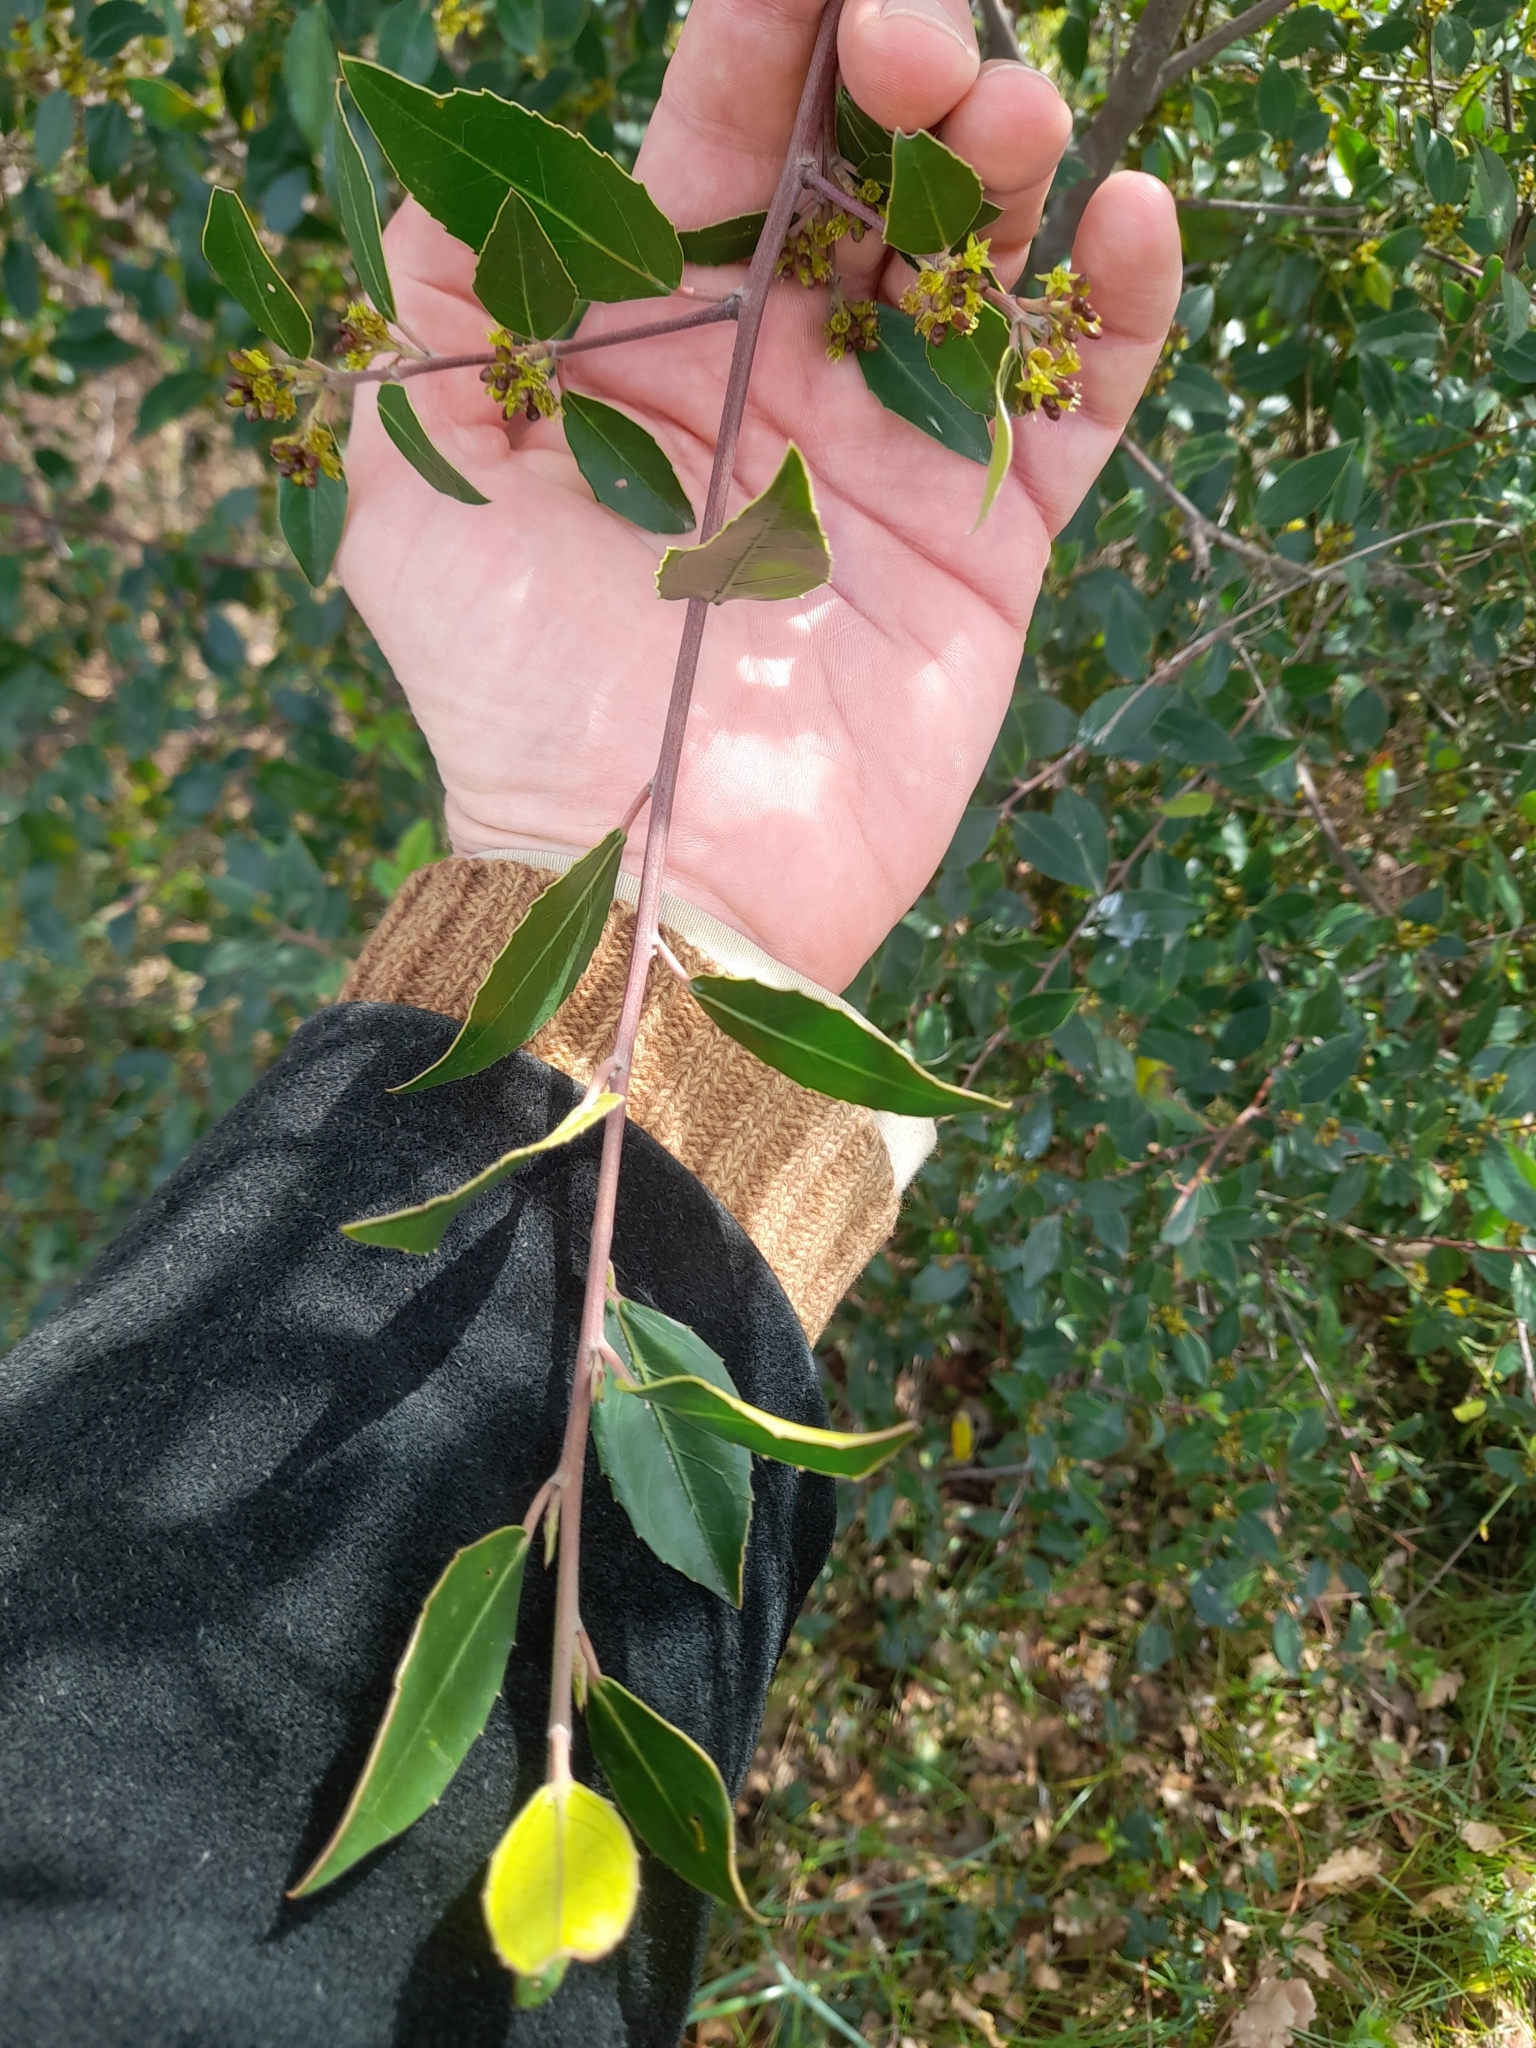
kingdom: Plantae
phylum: Tracheophyta
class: Magnoliopsida
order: Rosales
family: Rhamnaceae
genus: Rhamnus
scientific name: Rhamnus alaternus
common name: Mediterranean buckthorn
